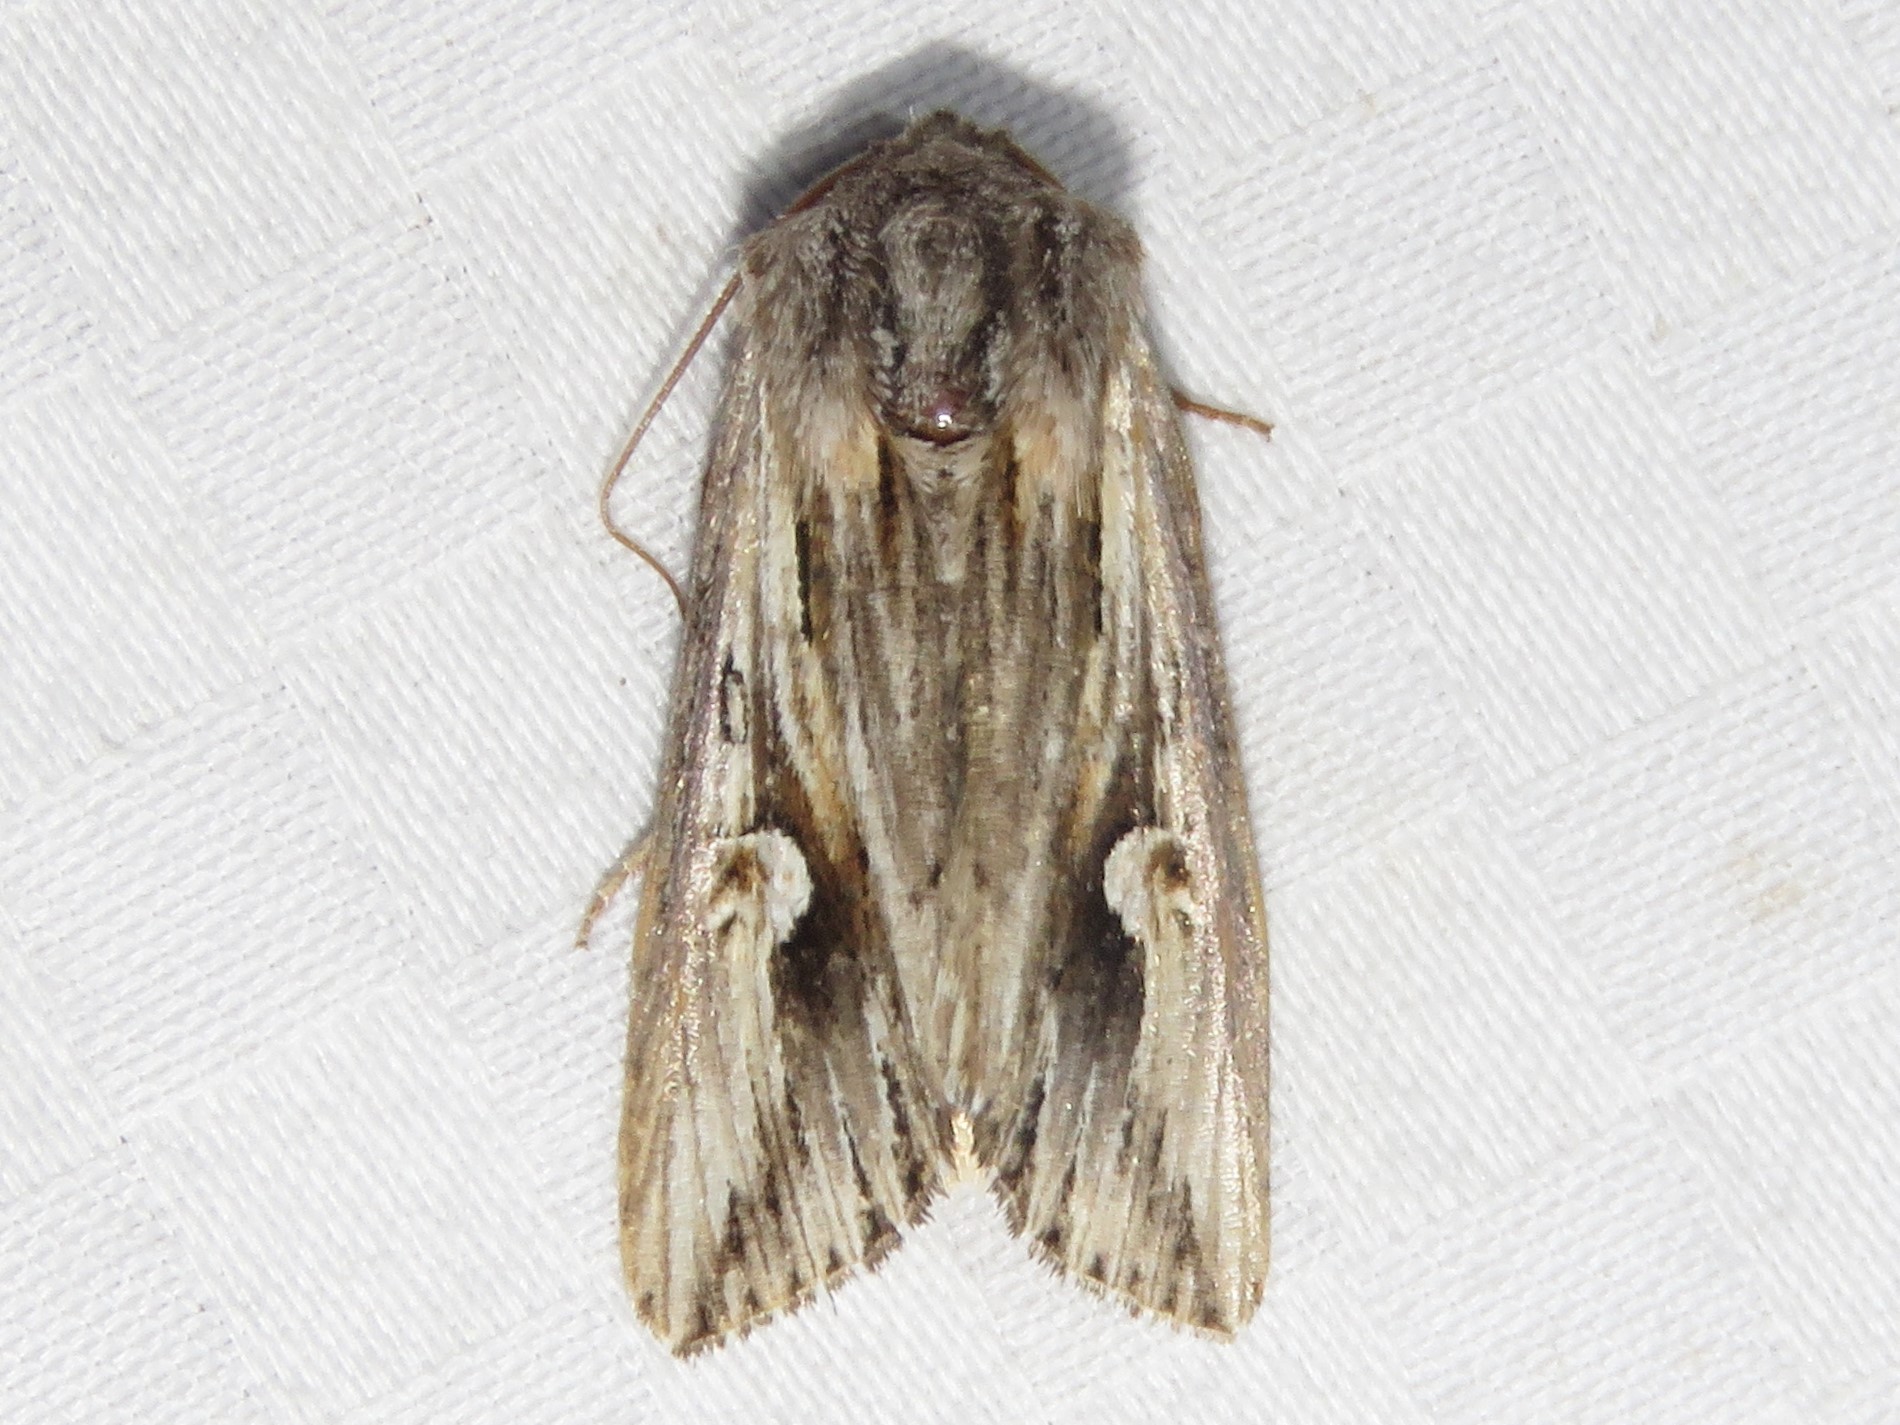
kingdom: Animalia
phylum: Arthropoda
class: Insecta
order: Lepidoptera
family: Noctuidae
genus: Nedra
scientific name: Nedra ramosula
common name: Gray half-spot
